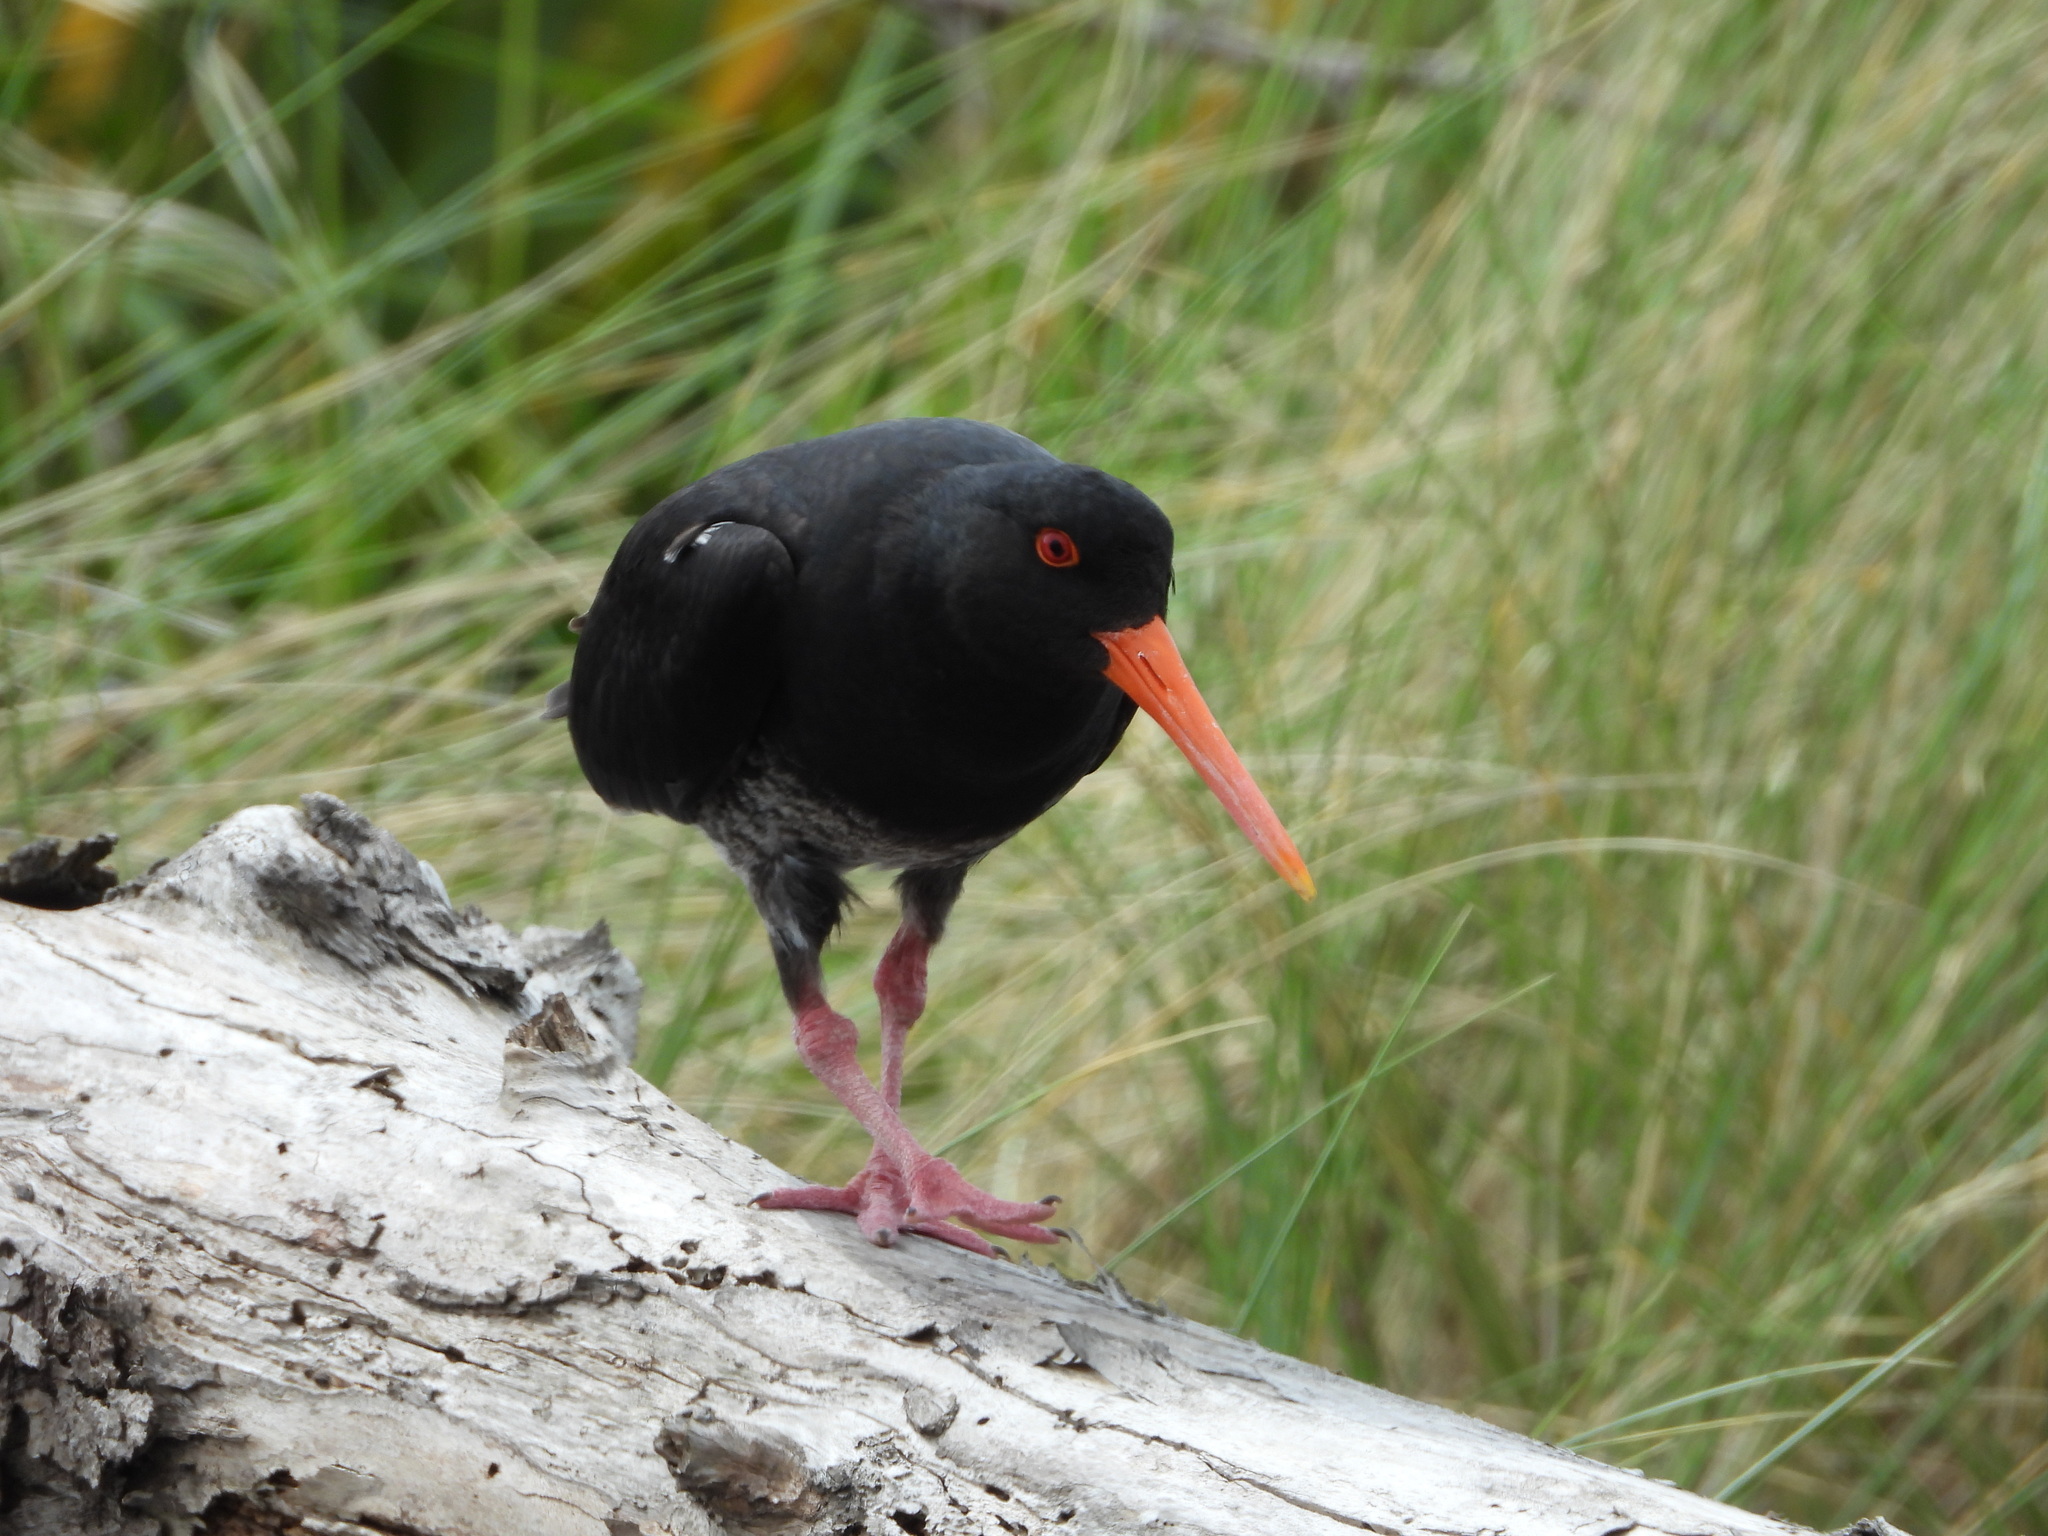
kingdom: Animalia
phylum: Chordata
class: Aves
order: Charadriiformes
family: Haematopodidae
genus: Haematopus
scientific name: Haematopus unicolor
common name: Variable oystercatcher
